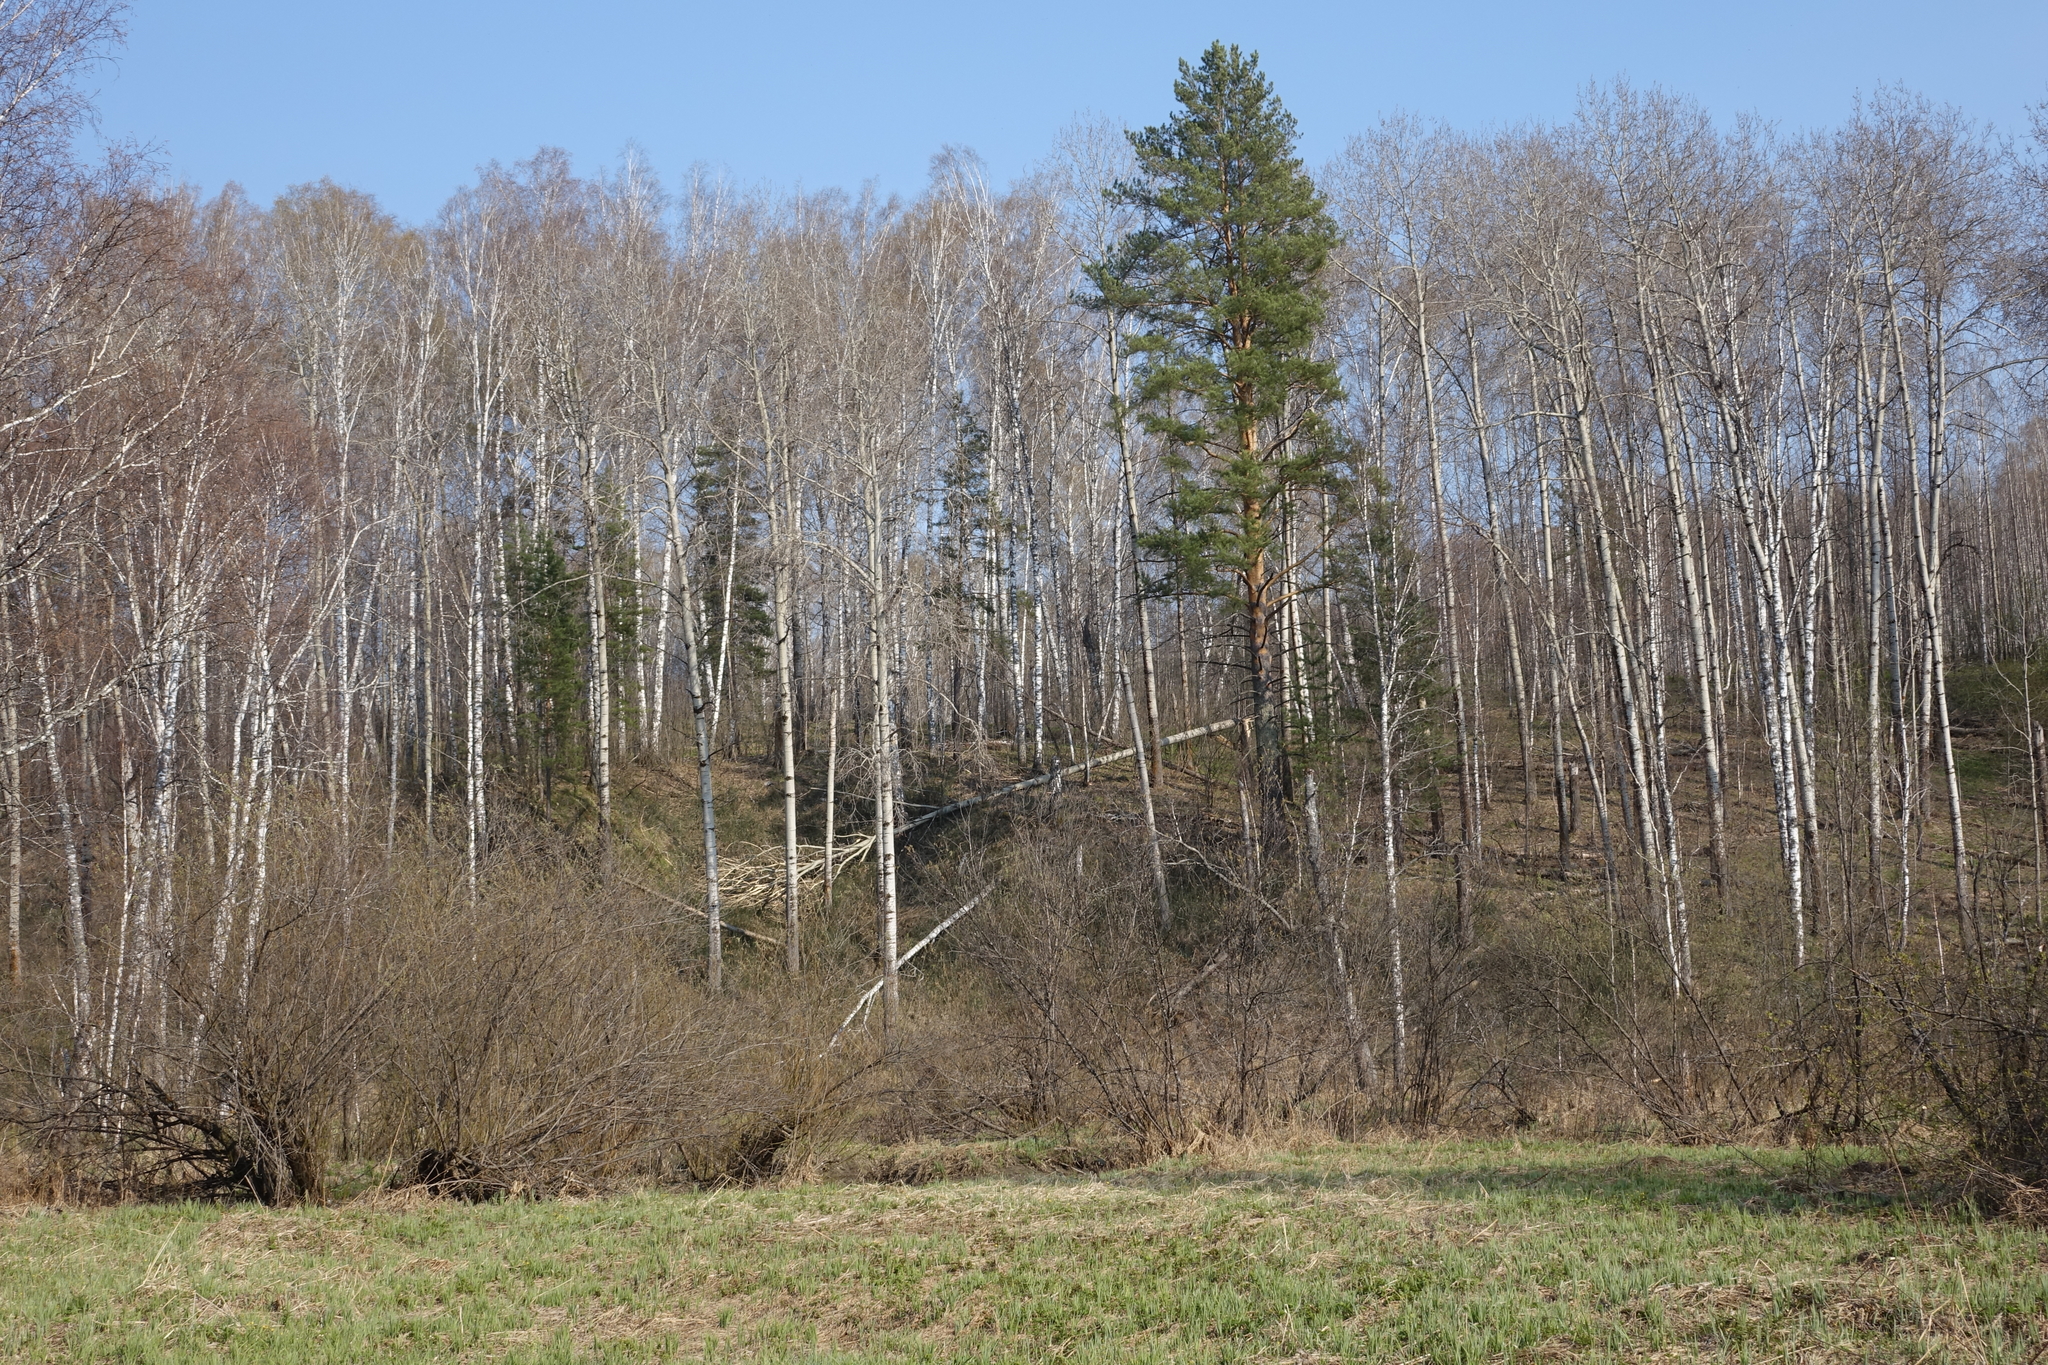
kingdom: Plantae
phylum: Tracheophyta
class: Pinopsida
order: Pinales
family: Pinaceae
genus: Pinus
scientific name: Pinus sylvestris
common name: Scots pine
